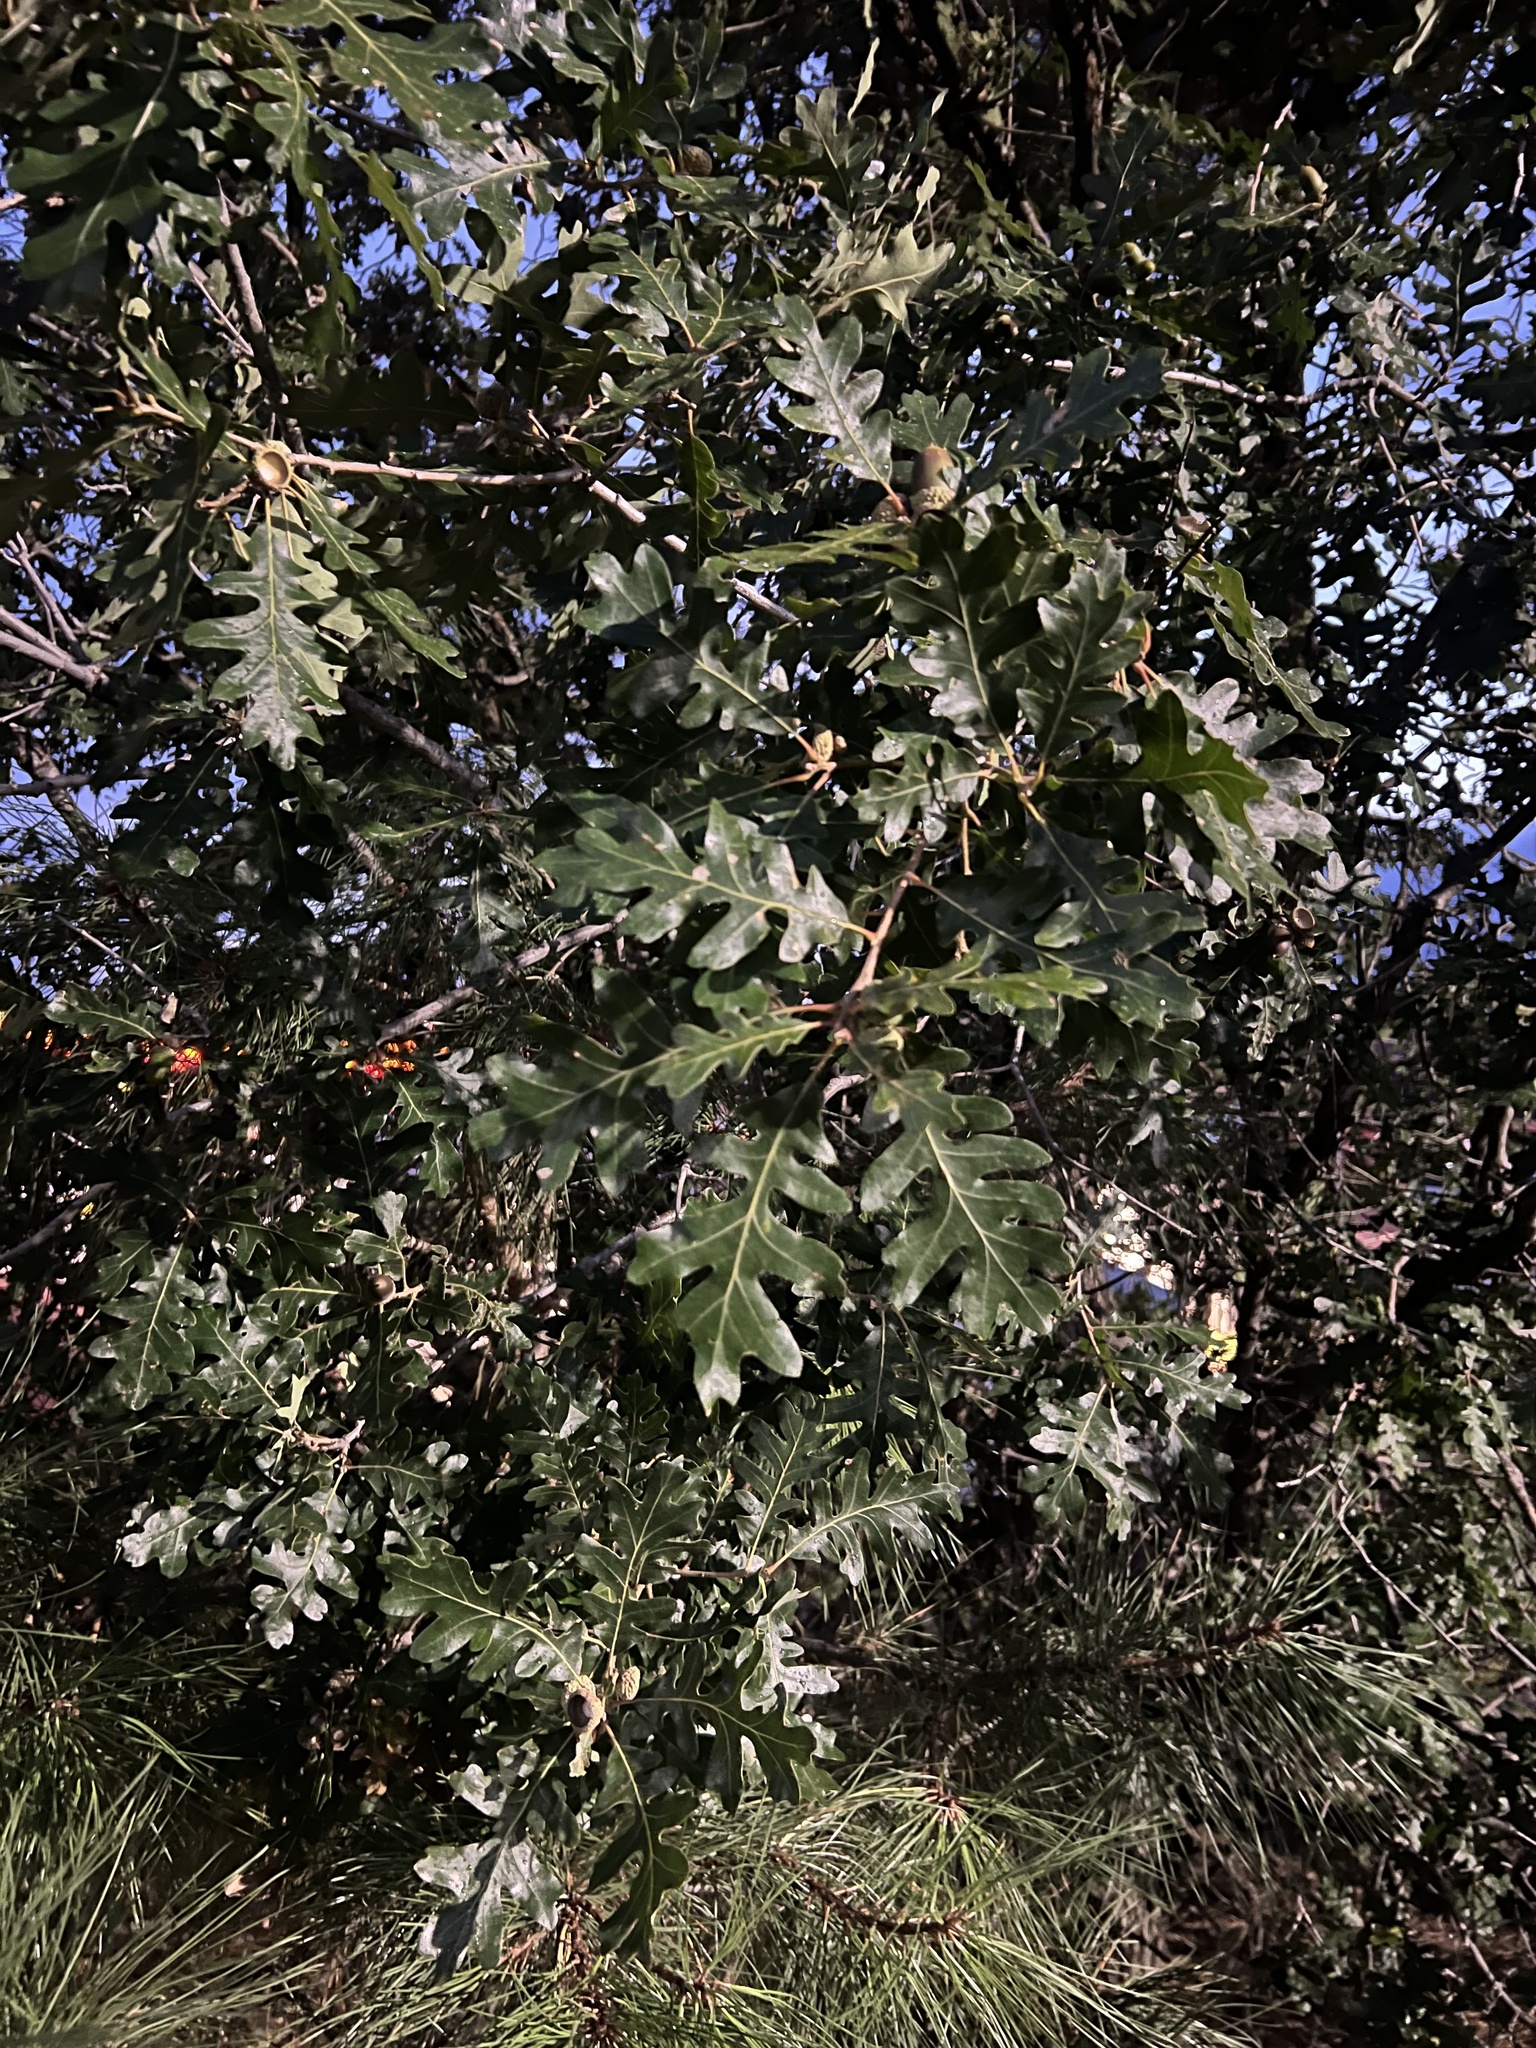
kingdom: Plantae
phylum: Tracheophyta
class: Magnoliopsida
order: Fagales
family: Fagaceae
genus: Quercus
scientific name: Quercus gambelii
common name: Gambel oak
